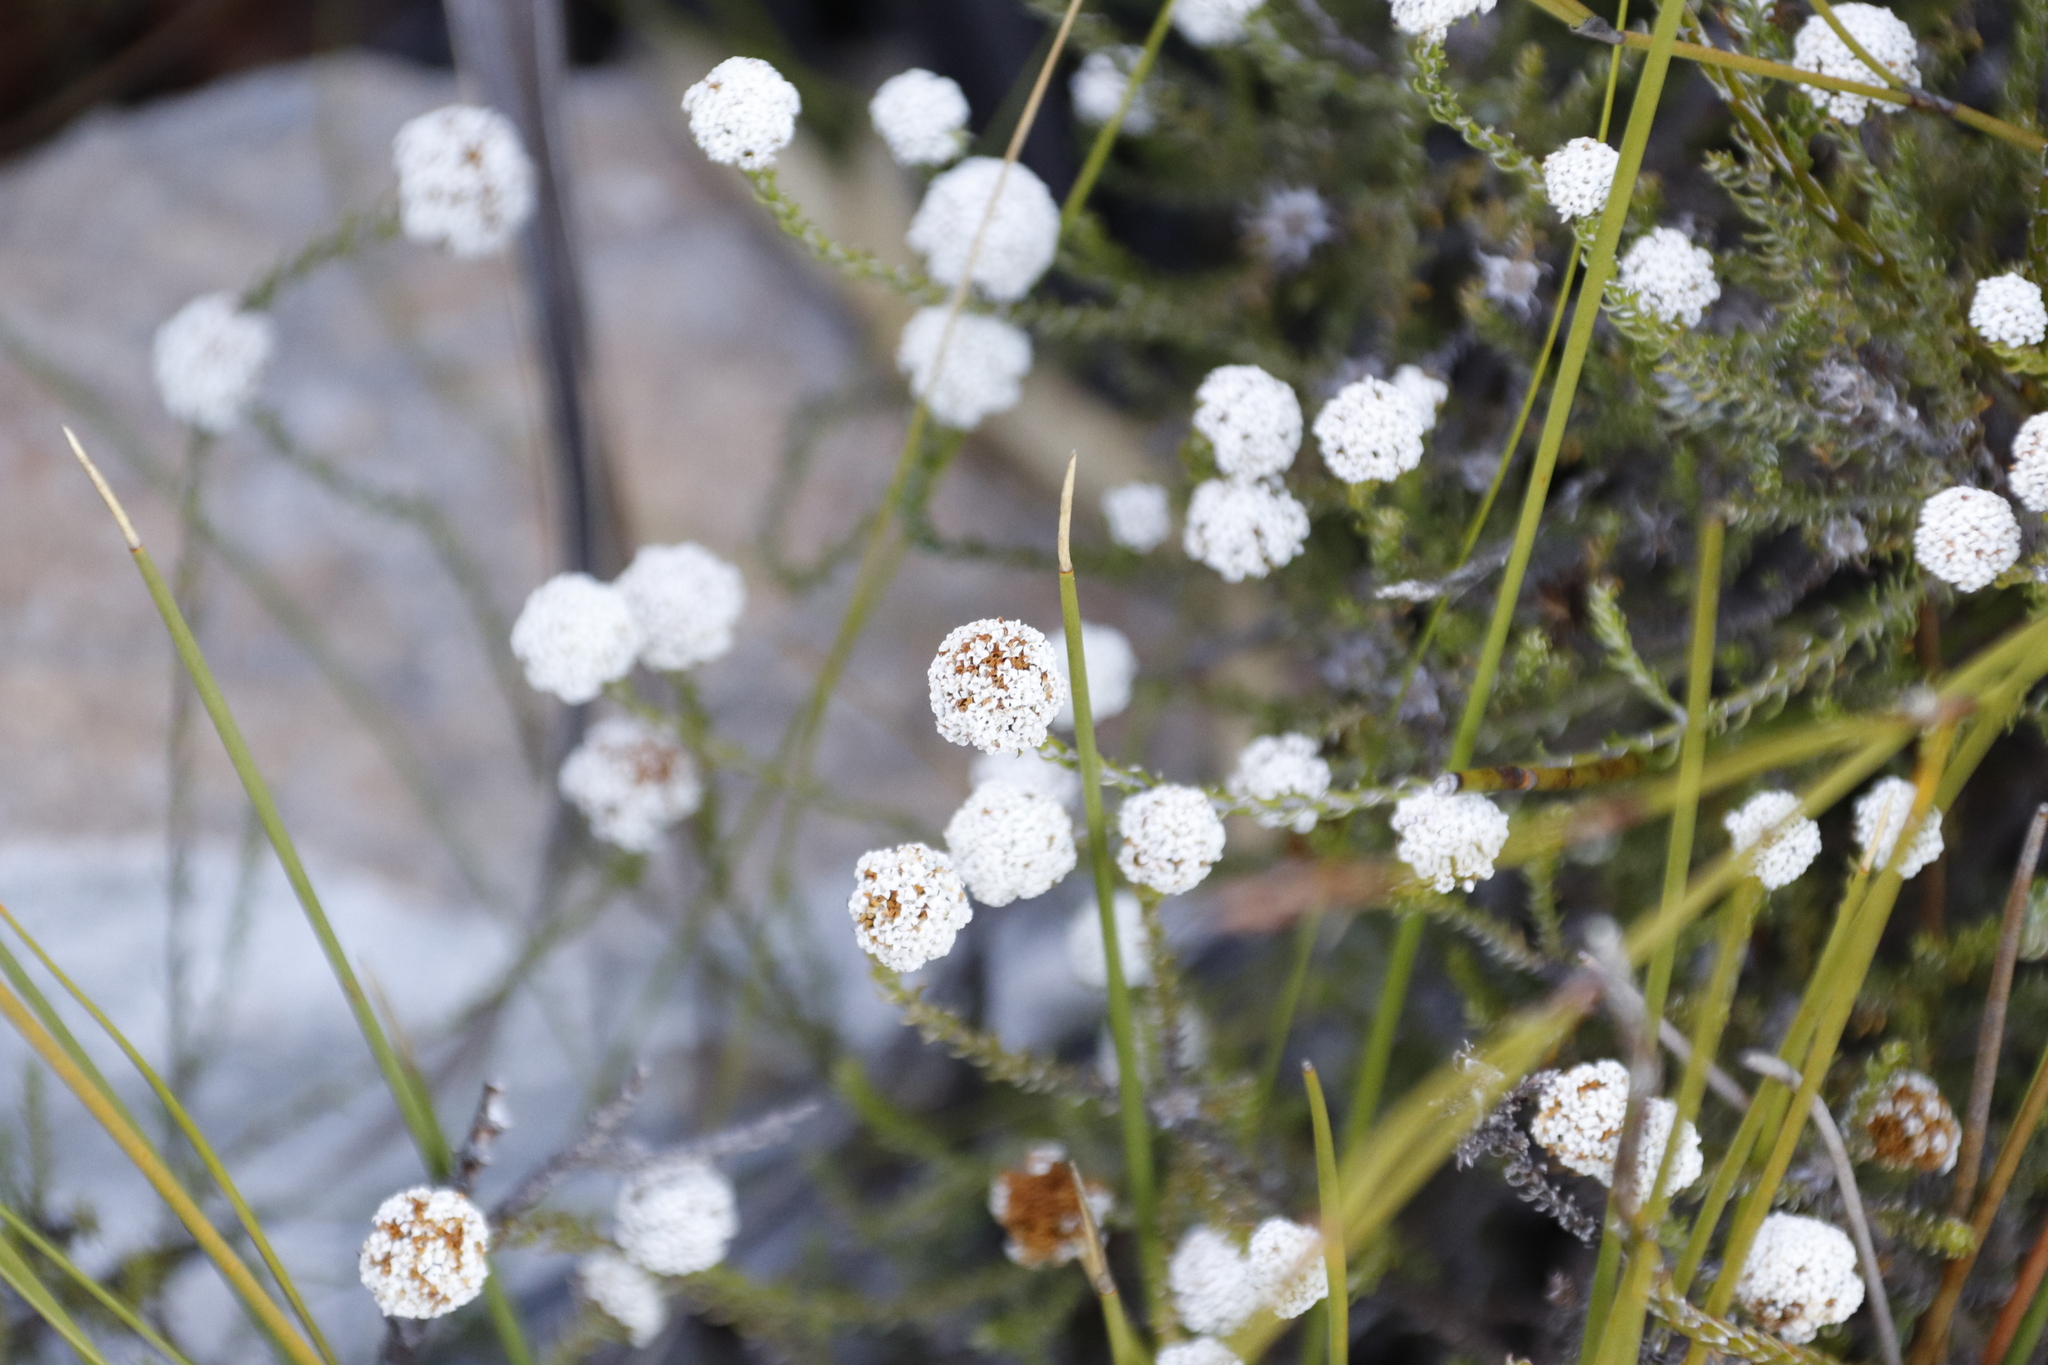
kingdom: Plantae
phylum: Tracheophyta
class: Magnoliopsida
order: Asterales
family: Asteraceae
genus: Stoebe
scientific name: Stoebe capitata
